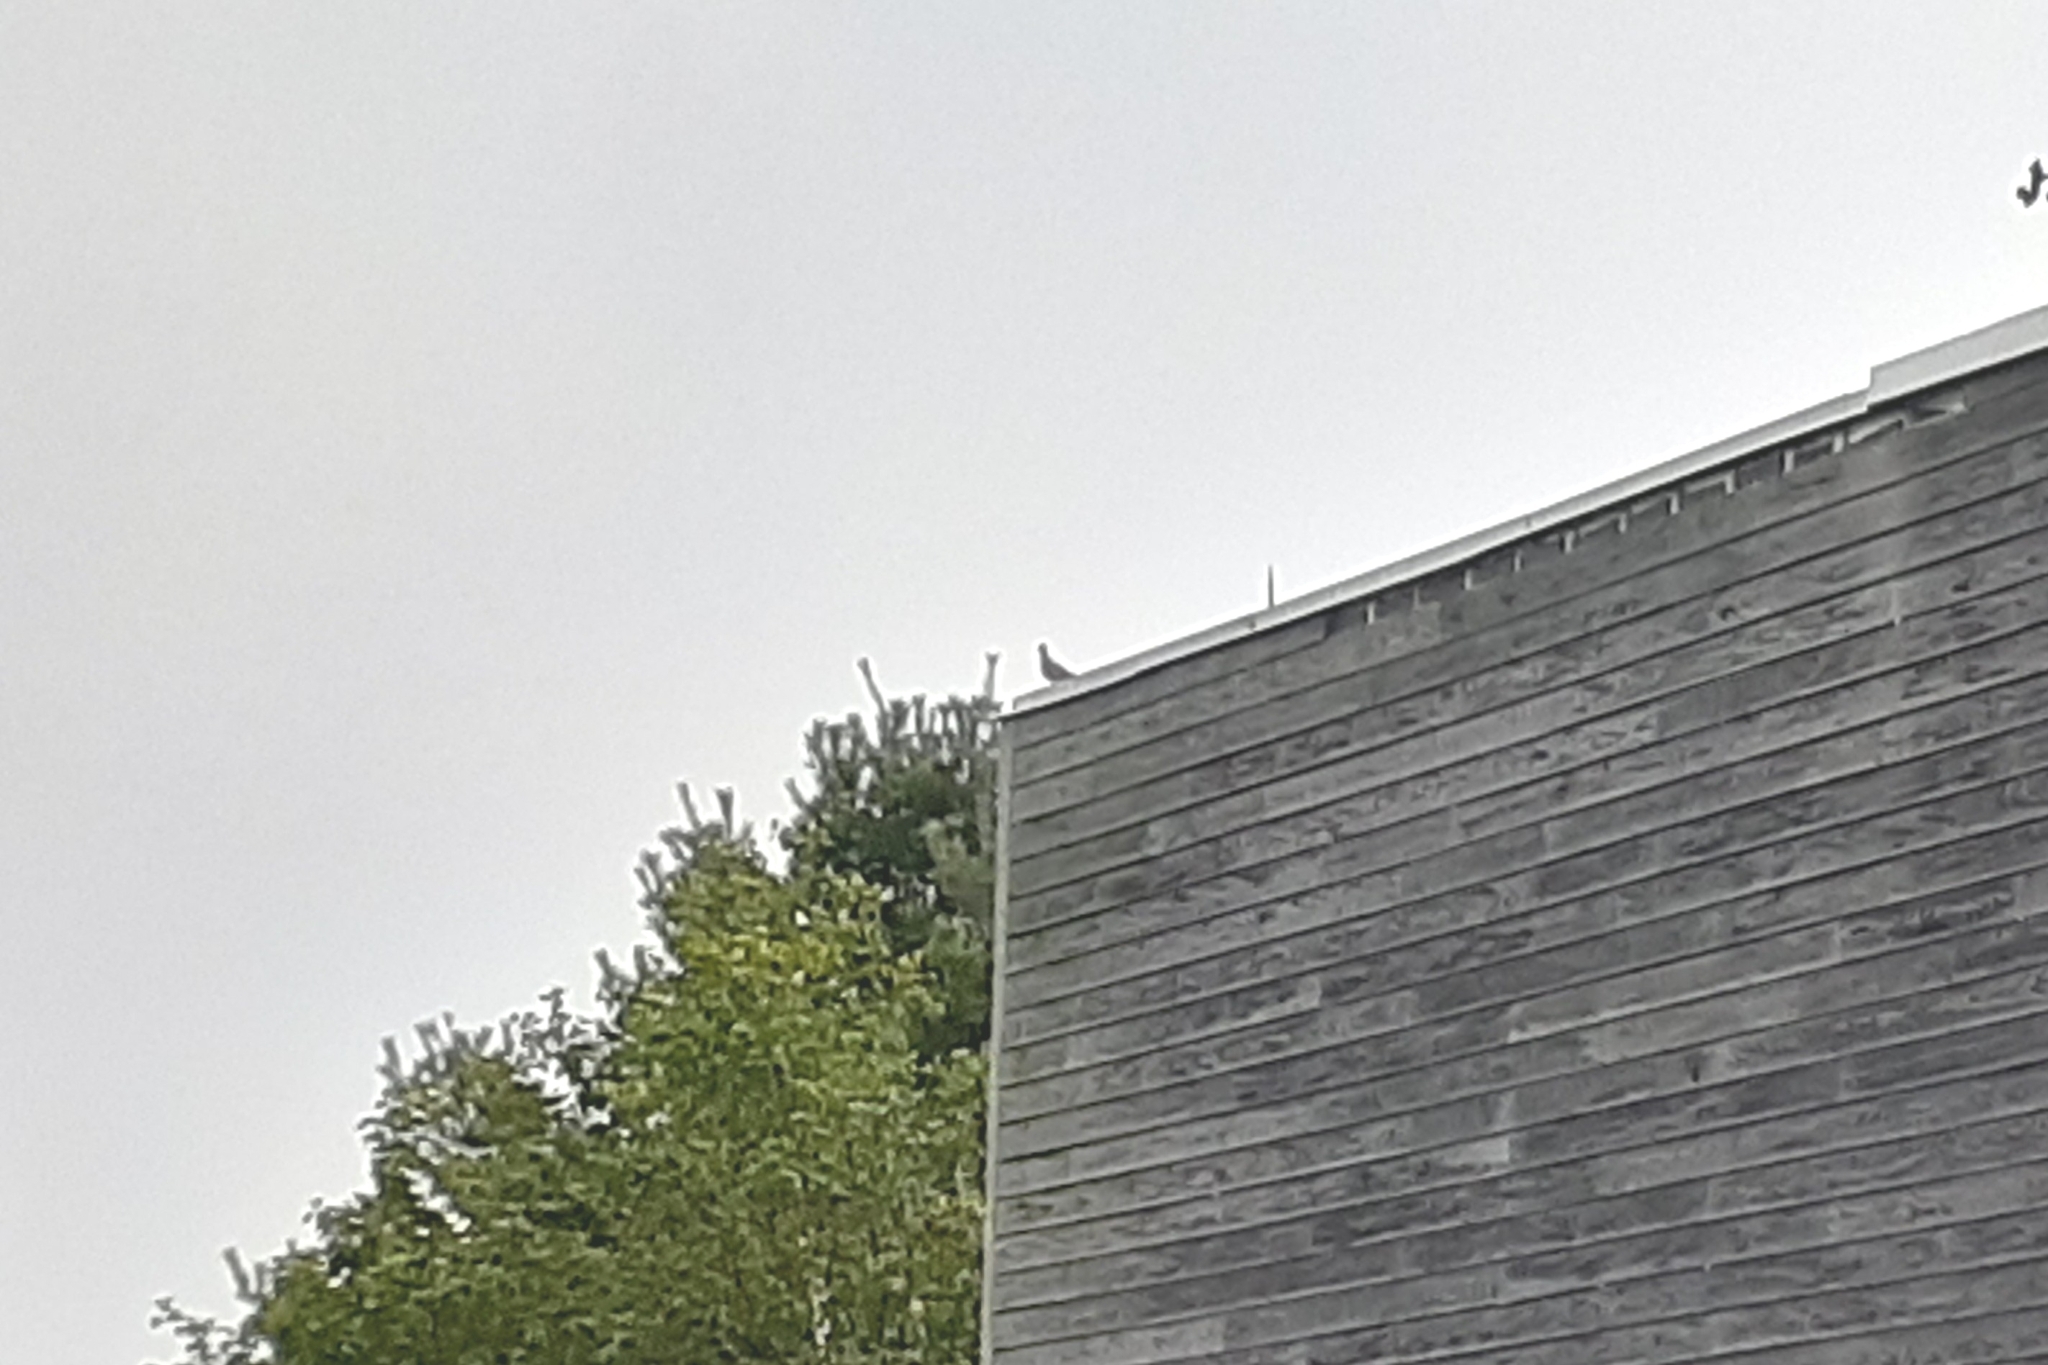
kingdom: Animalia
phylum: Chordata
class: Aves
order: Columbiformes
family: Columbidae
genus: Zenaida
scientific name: Zenaida macroura
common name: Mourning dove
